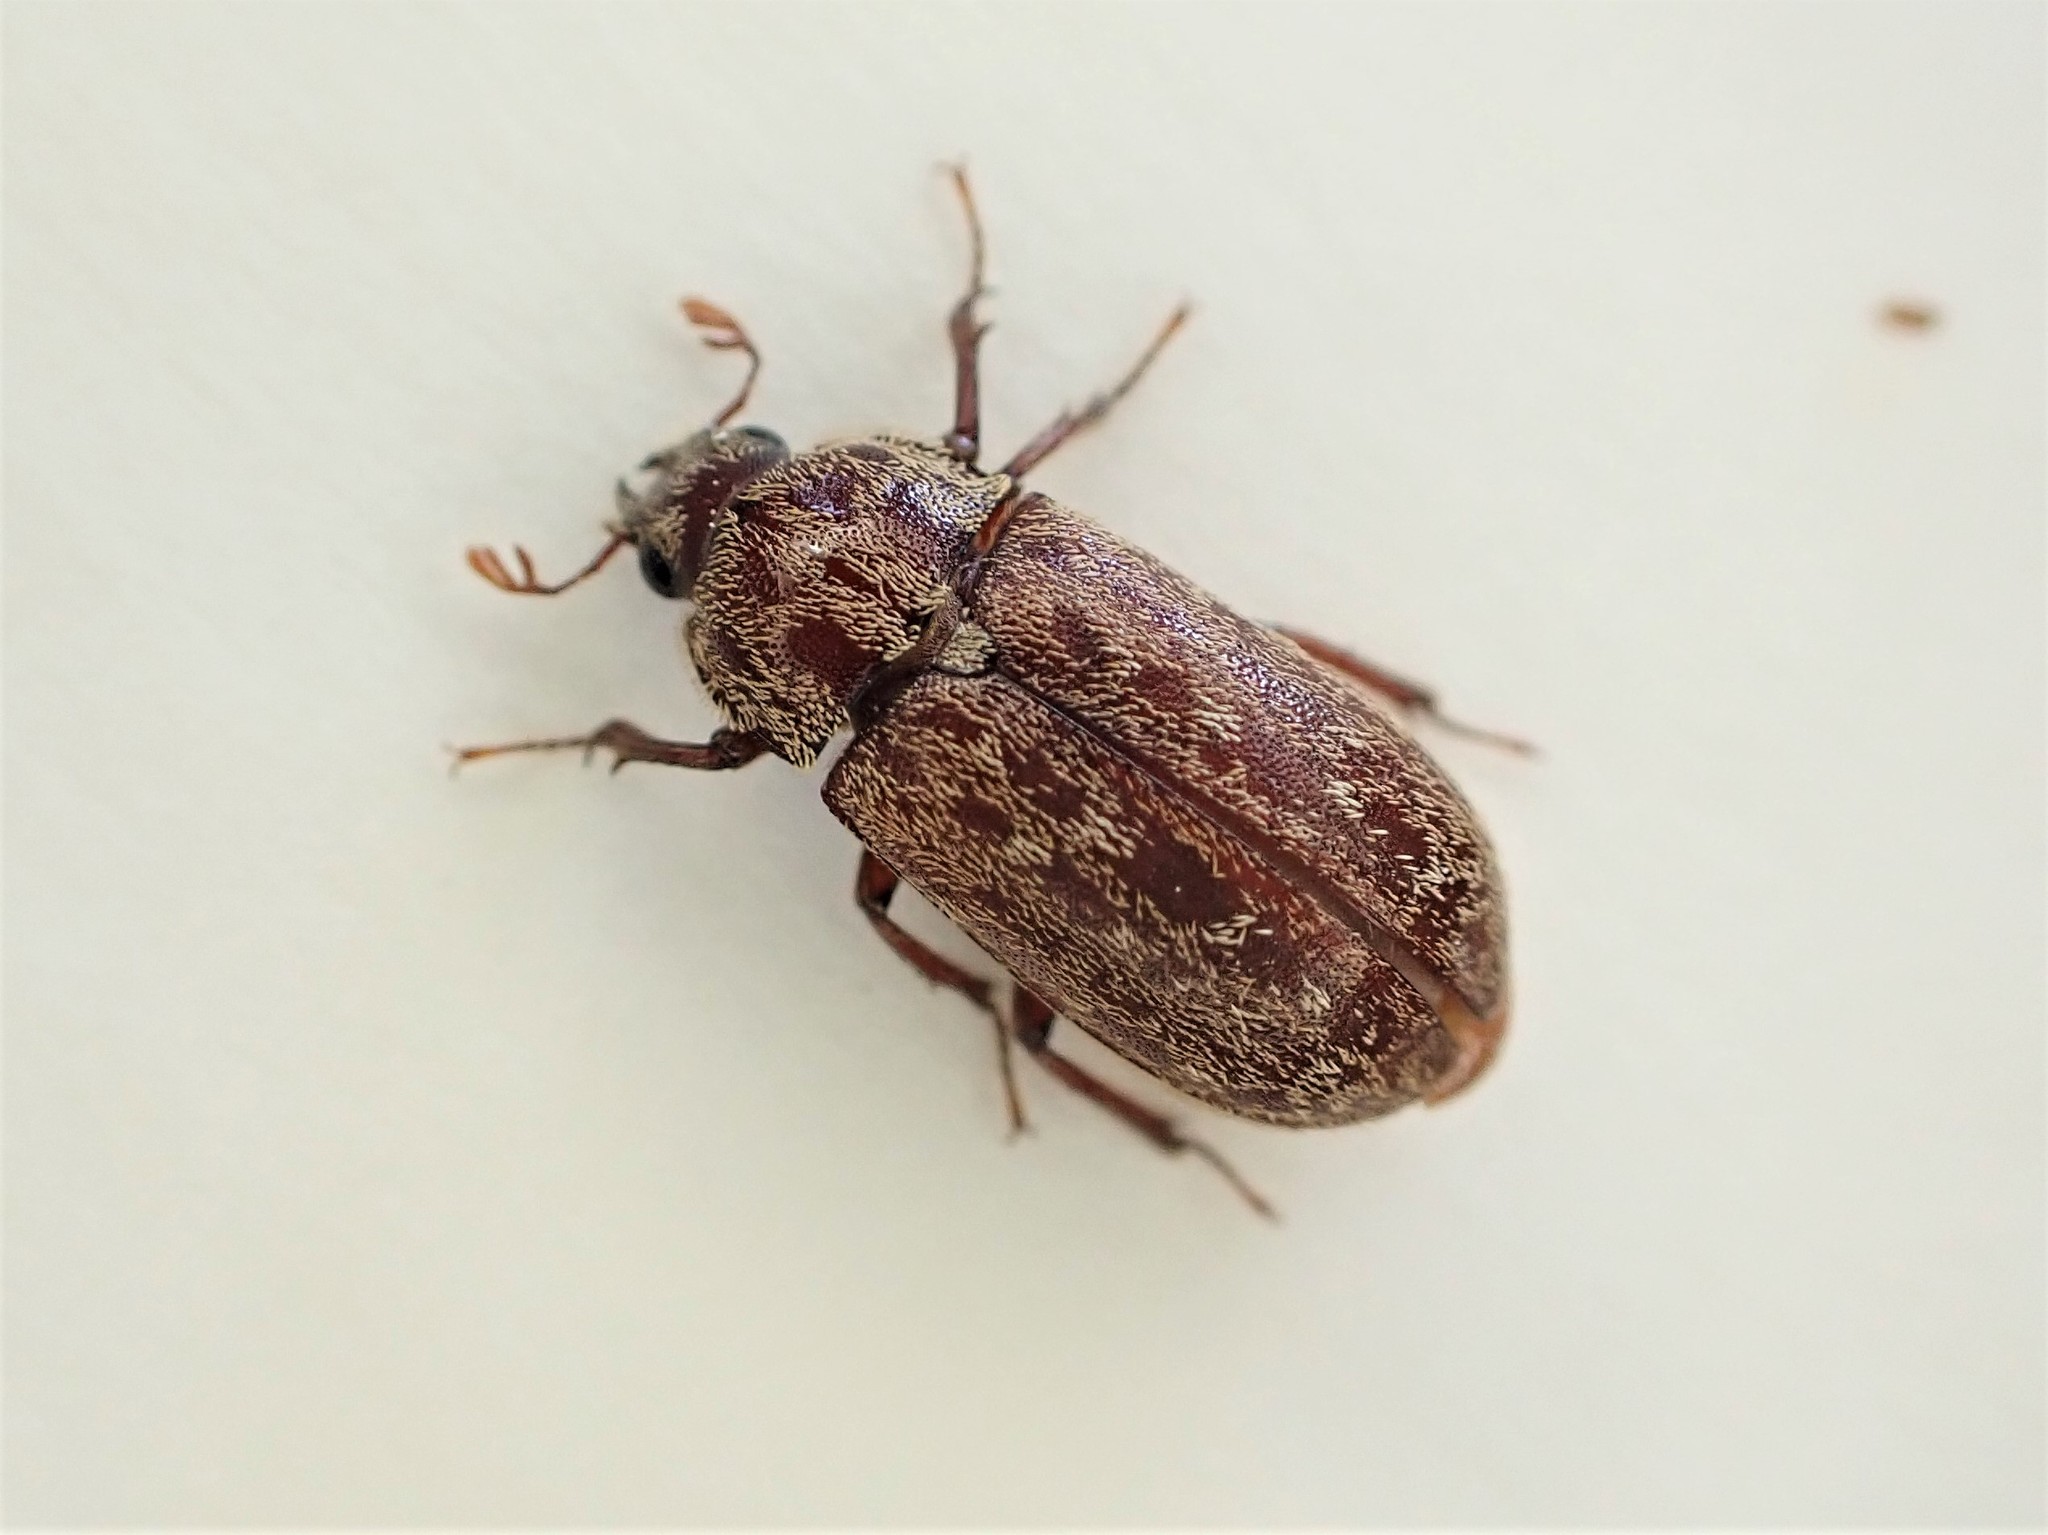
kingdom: Animalia
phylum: Arthropoda
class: Insecta
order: Coleoptera
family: Lucanidae
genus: Mitophyllus
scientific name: Mitophyllus irroratus
